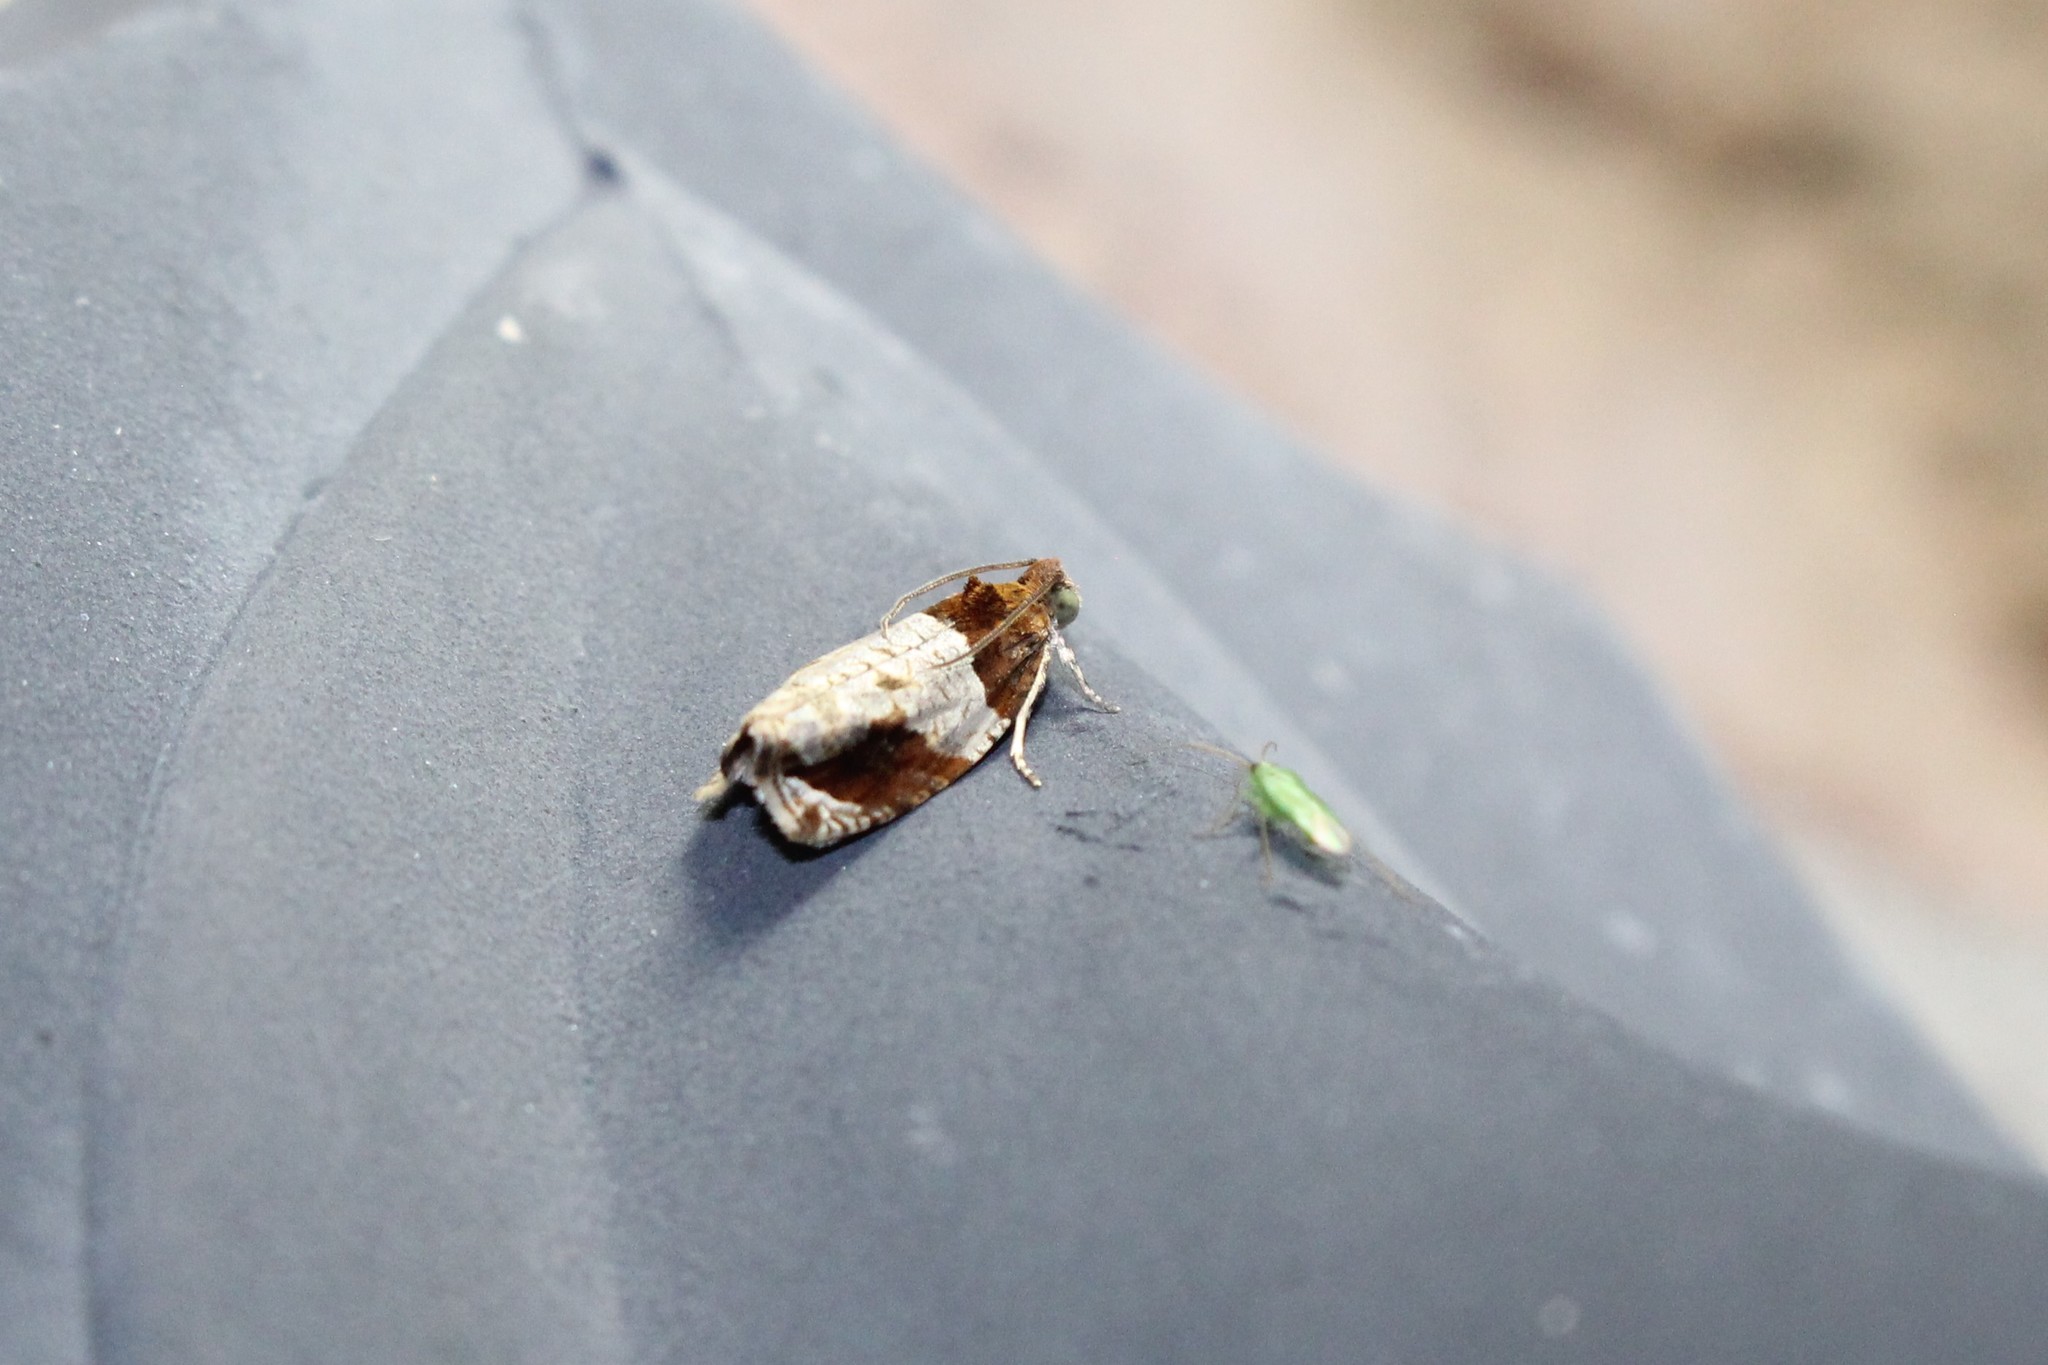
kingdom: Animalia
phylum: Arthropoda
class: Insecta
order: Lepidoptera
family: Tortricidae
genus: Olethreutes
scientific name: Olethreutes ferriferana
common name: Hydrangea leaftier moth
